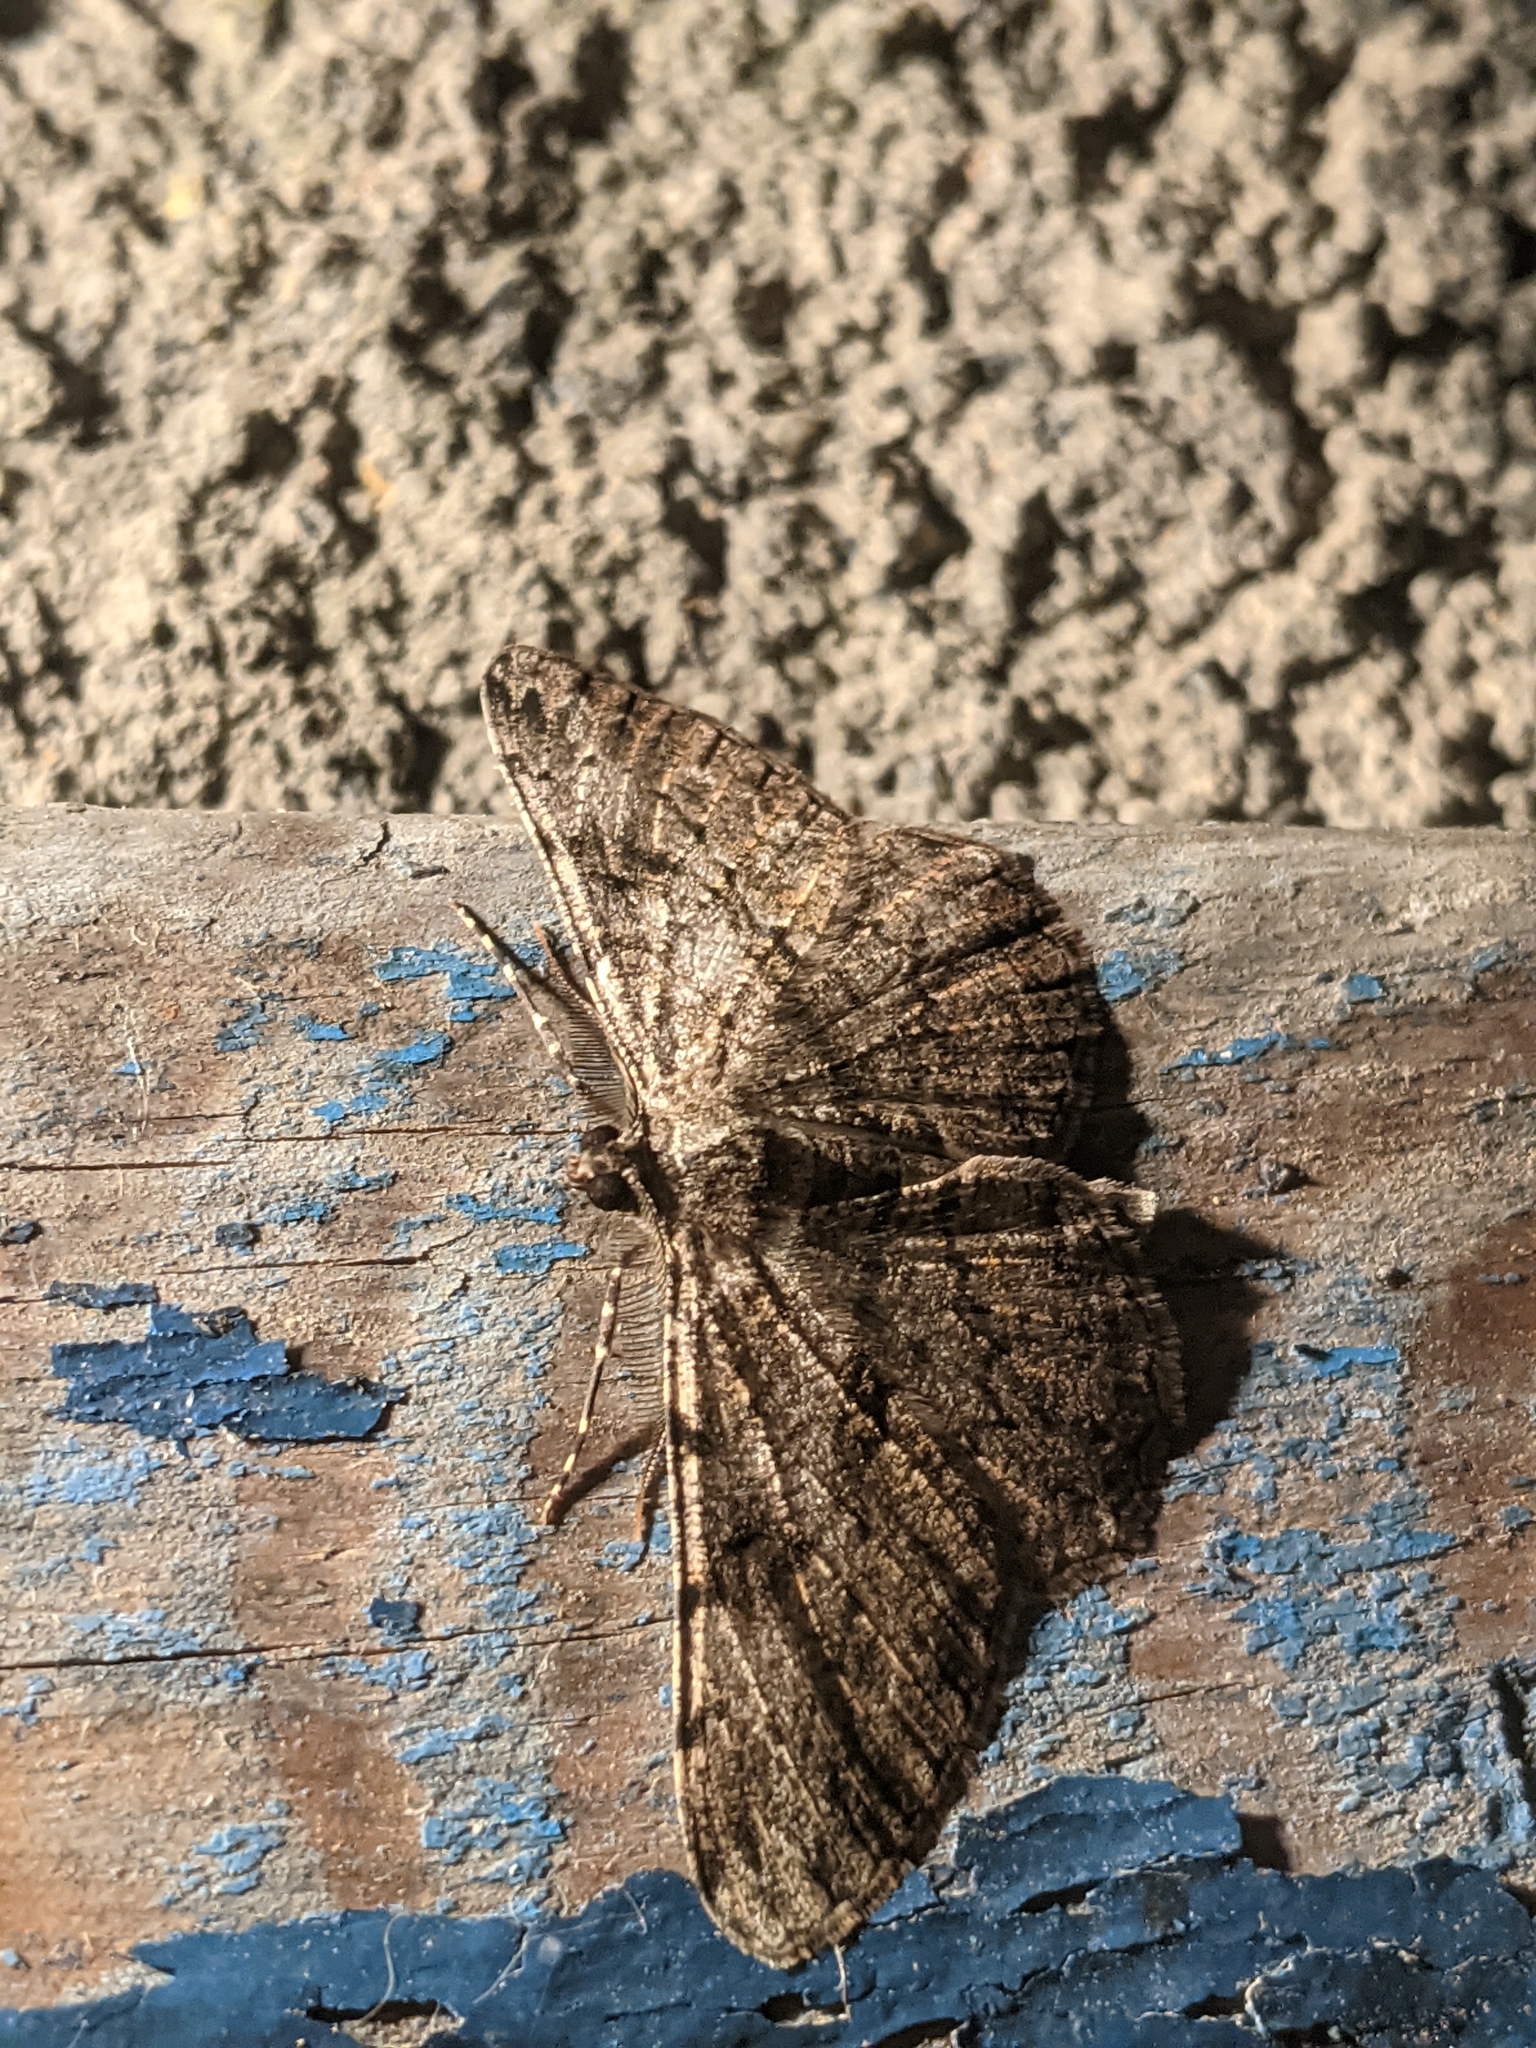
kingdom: Animalia
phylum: Arthropoda
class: Insecta
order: Lepidoptera
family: Geometridae
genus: Peribatodes
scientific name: Peribatodes rhomboidaria
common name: Willow beauty
